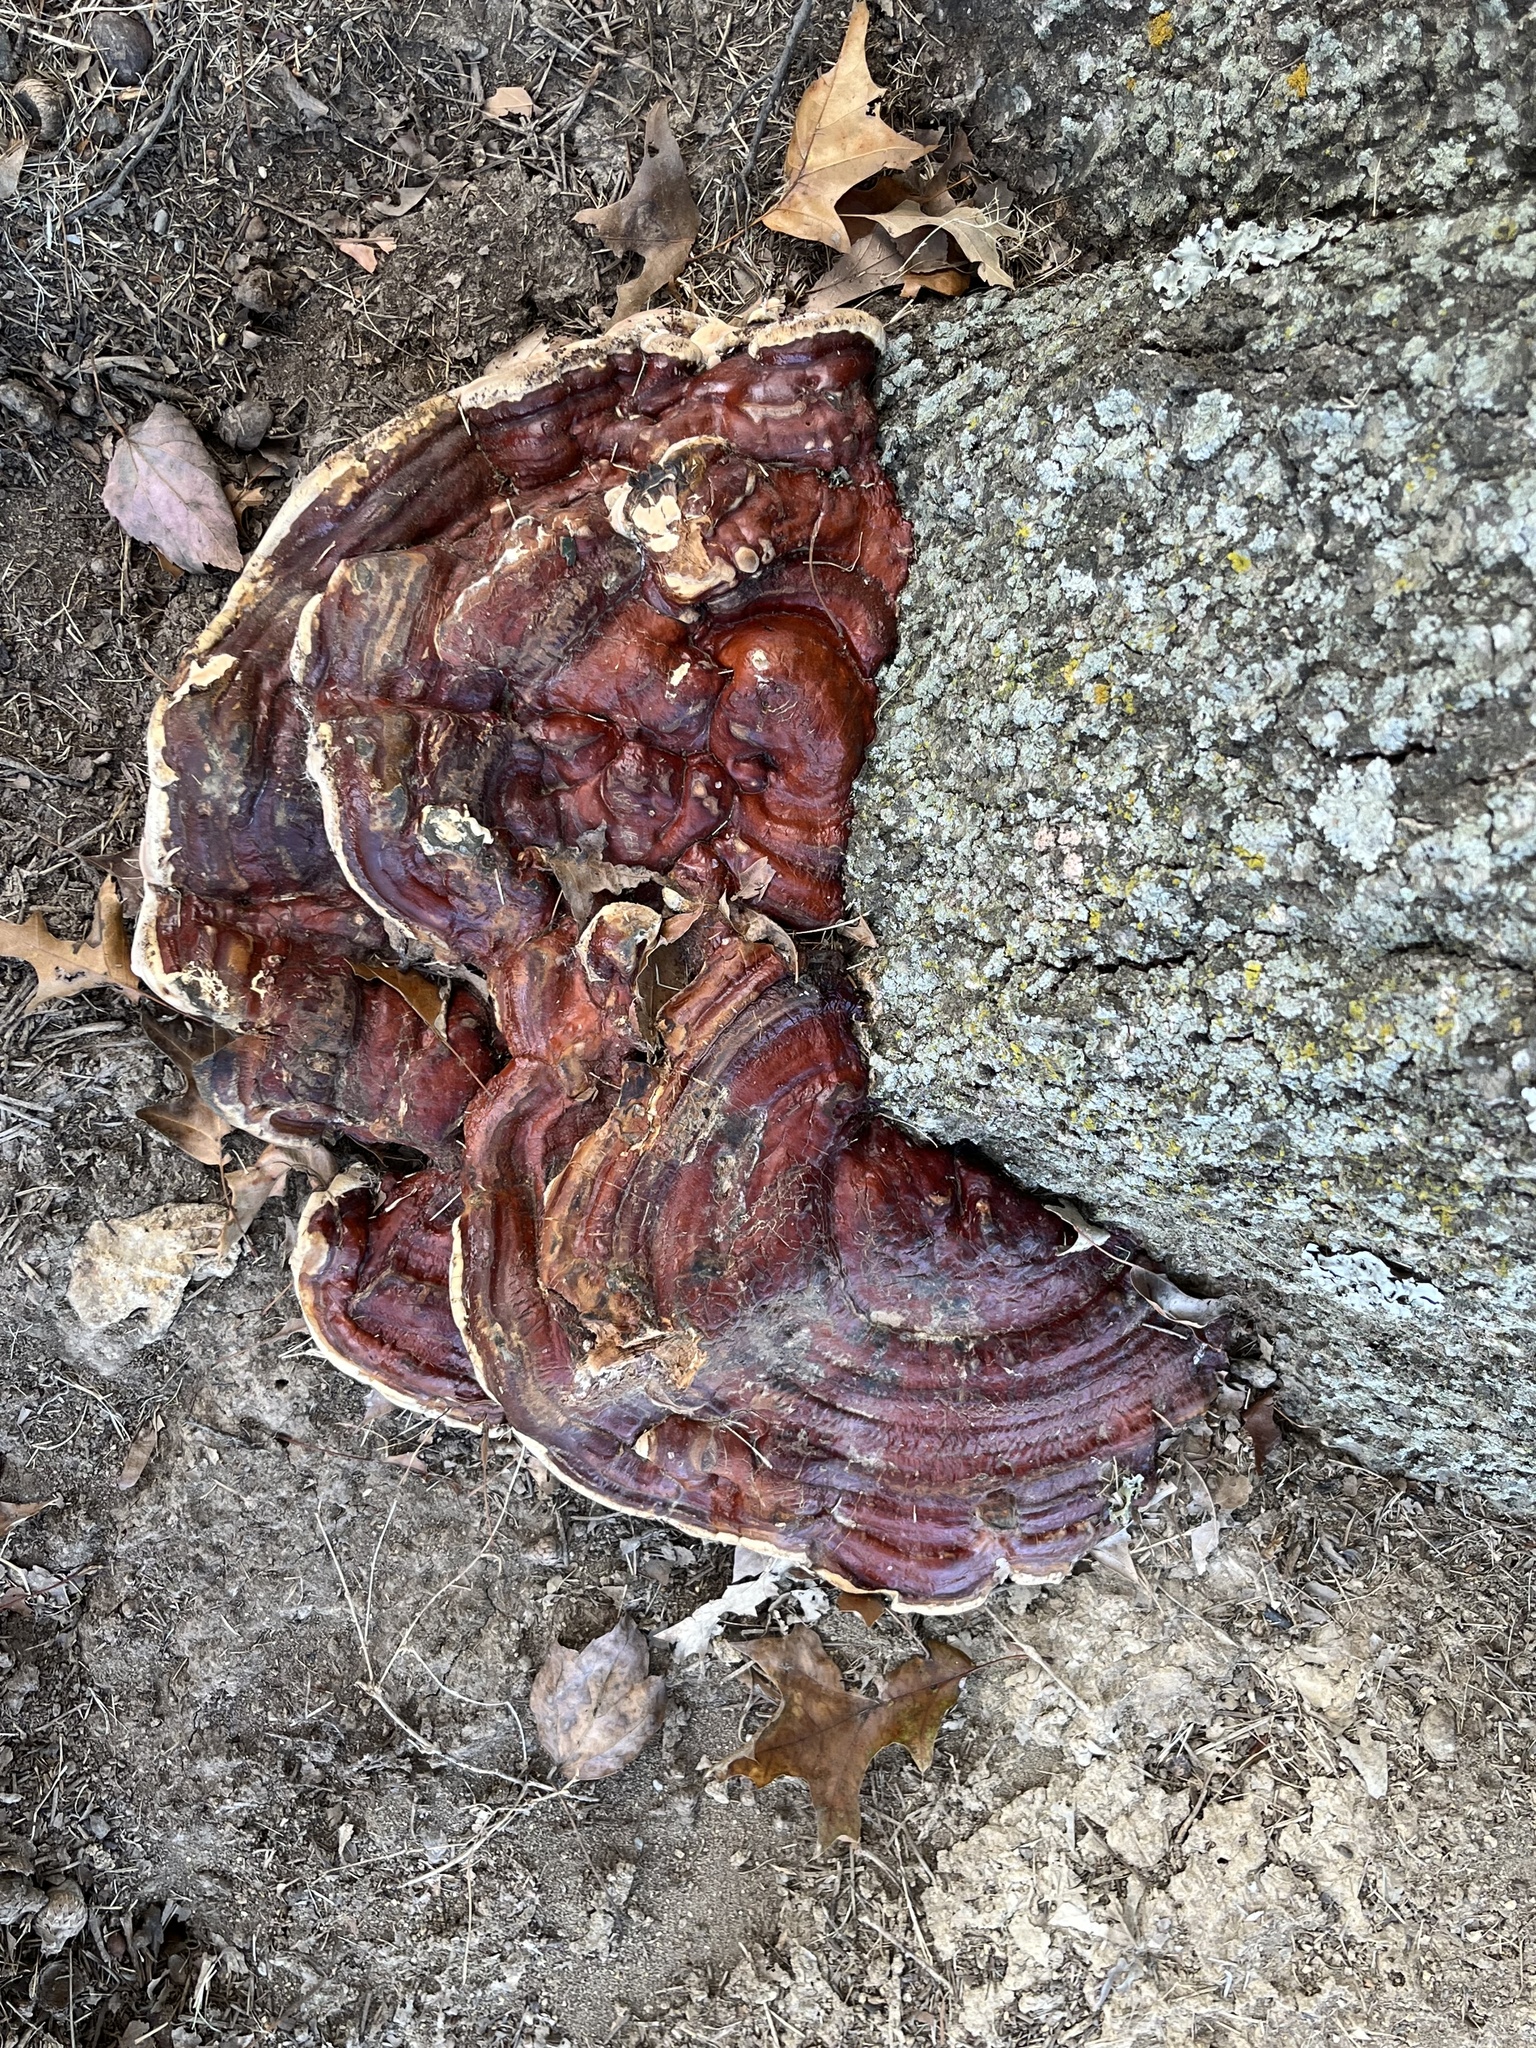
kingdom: Fungi
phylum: Basidiomycota
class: Agaricomycetes
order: Polyporales
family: Polyporaceae
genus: Ganoderma
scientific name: Ganoderma resinaceum
